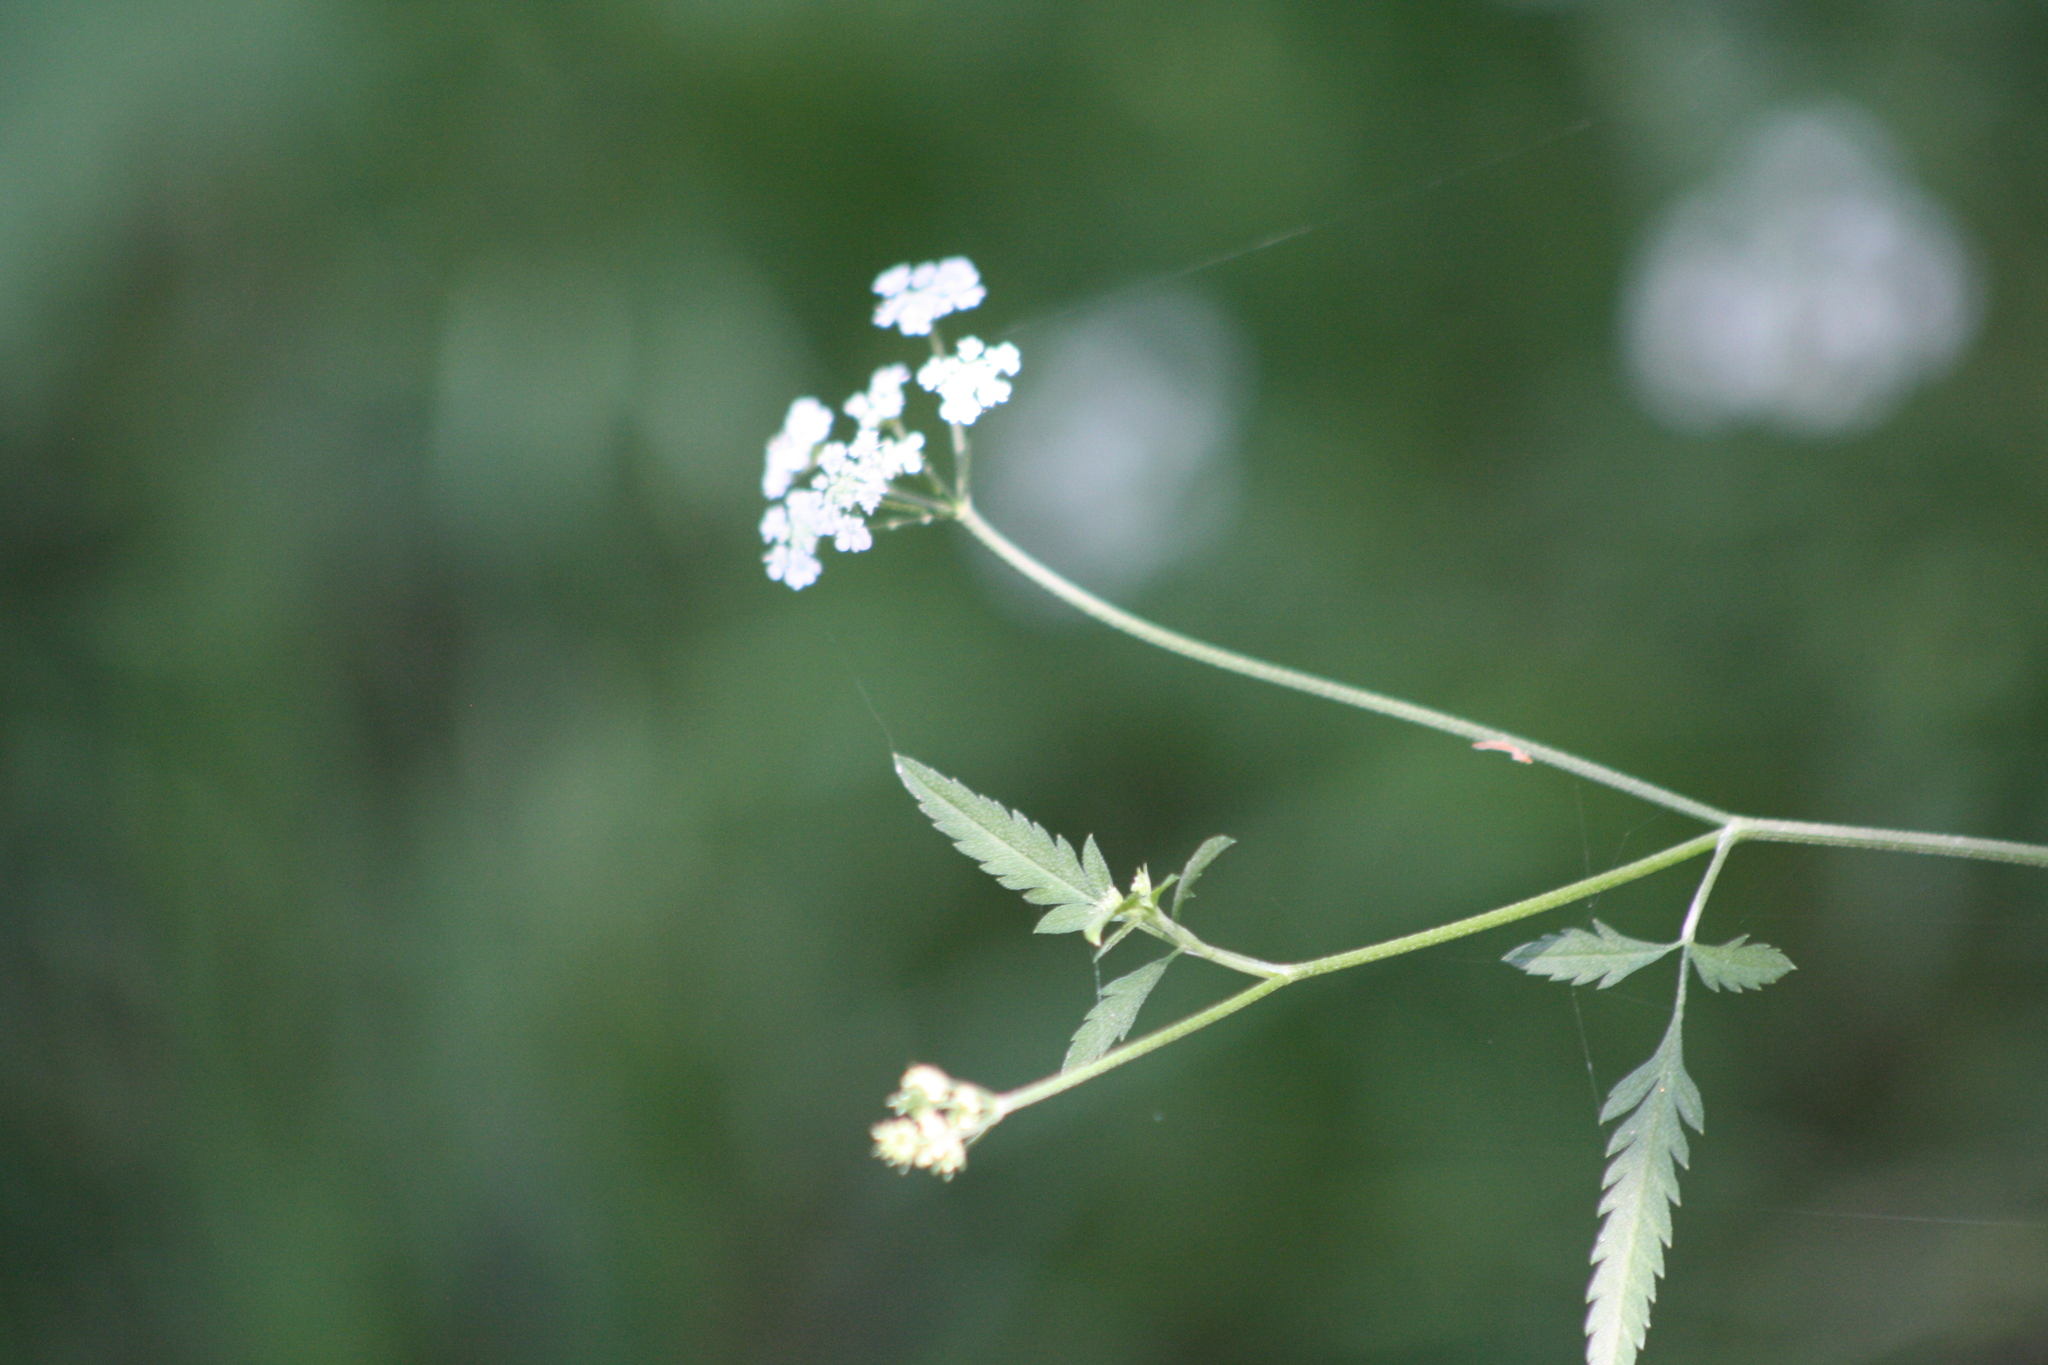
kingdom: Plantae
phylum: Tracheophyta
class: Magnoliopsida
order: Apiales
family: Apiaceae
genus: Torilis
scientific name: Torilis arvensis
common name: Spreading hedge-parsley
